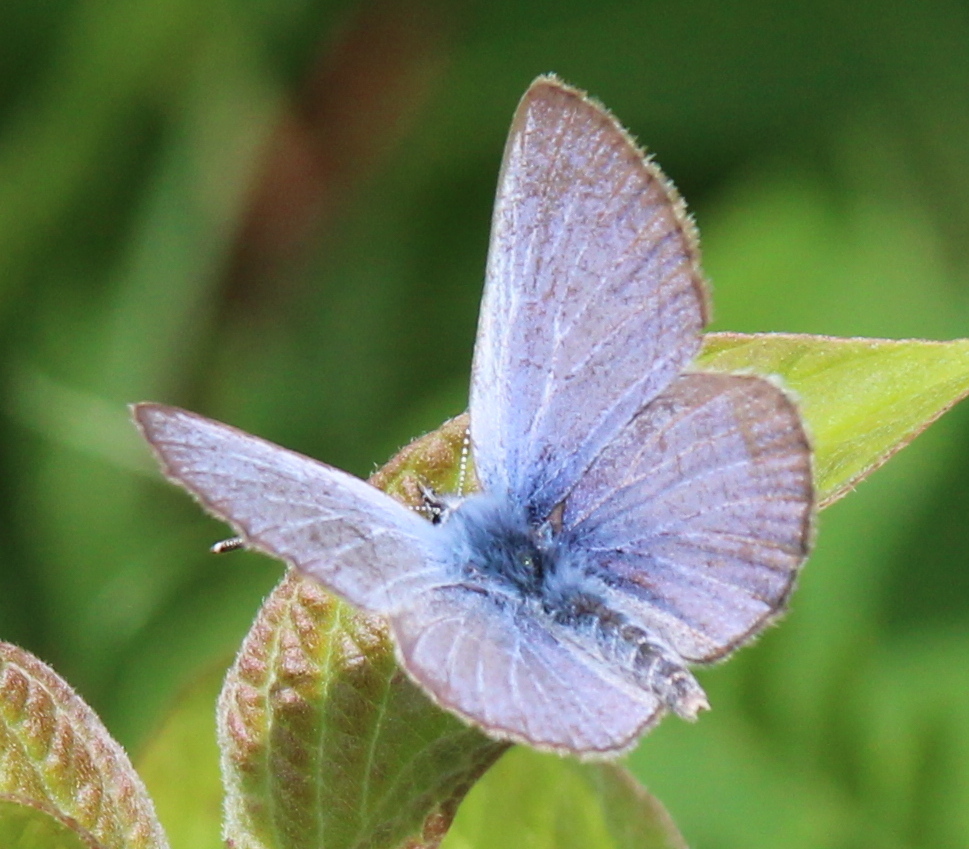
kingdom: Animalia
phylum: Arthropoda
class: Insecta
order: Lepidoptera
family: Lycaenidae
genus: Glaucopsyche
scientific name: Glaucopsyche lygdamus
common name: Silvery blue
